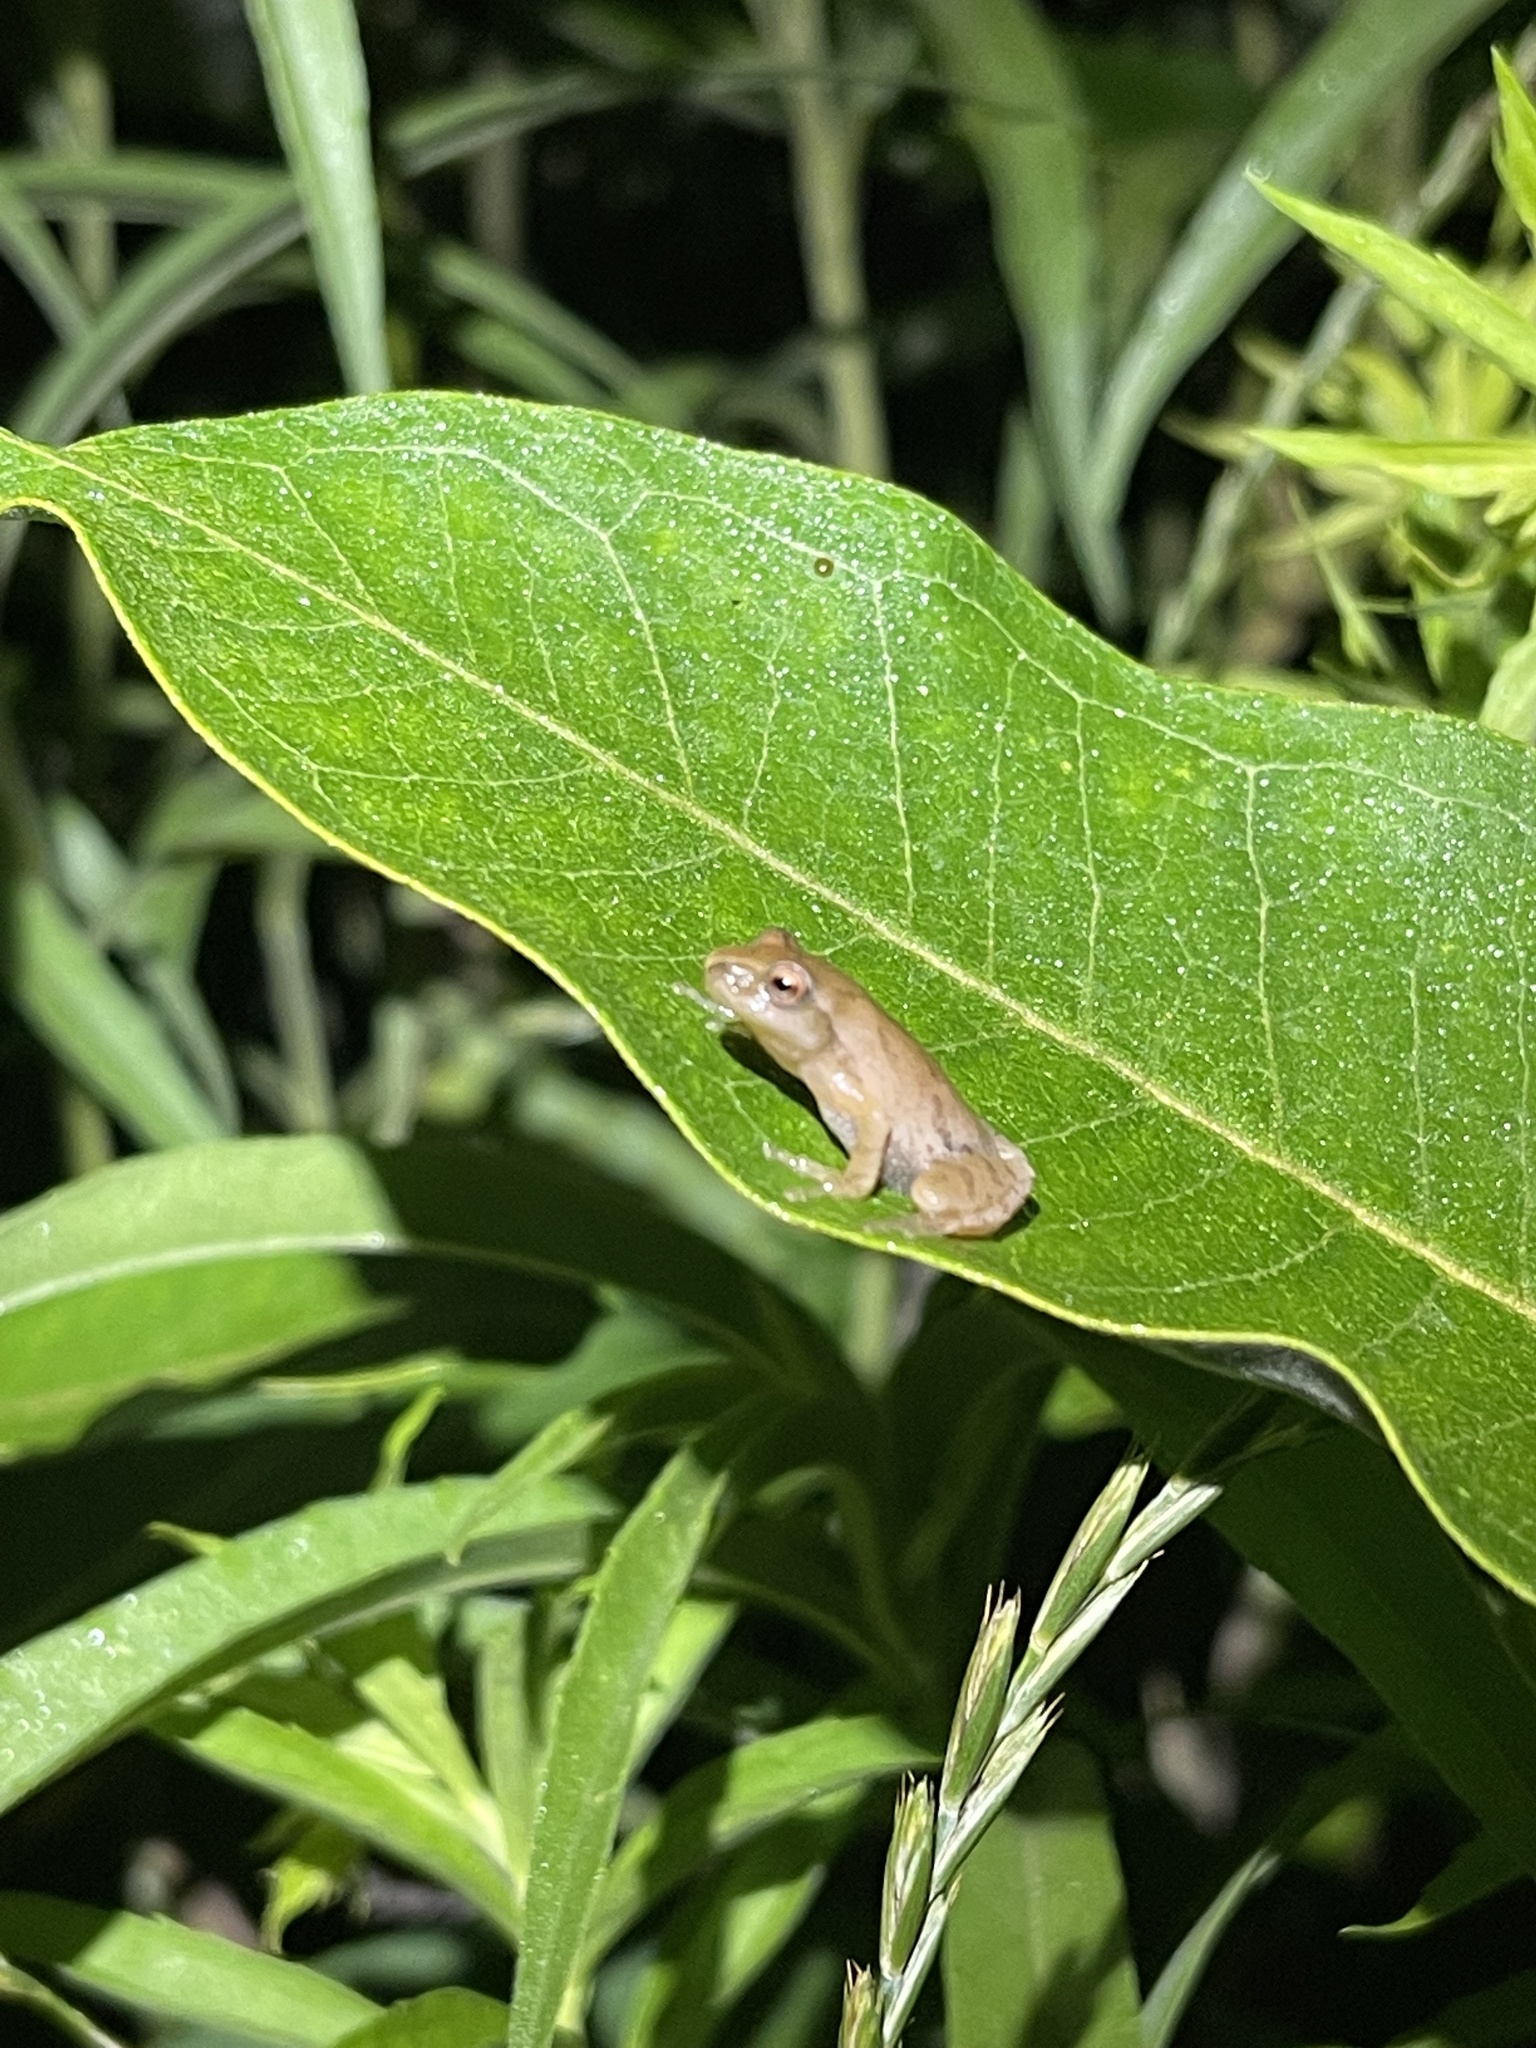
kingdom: Animalia
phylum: Chordata
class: Amphibia
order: Anura
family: Hylidae
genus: Pseudacris
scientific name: Pseudacris crucifer
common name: Spring peeper
